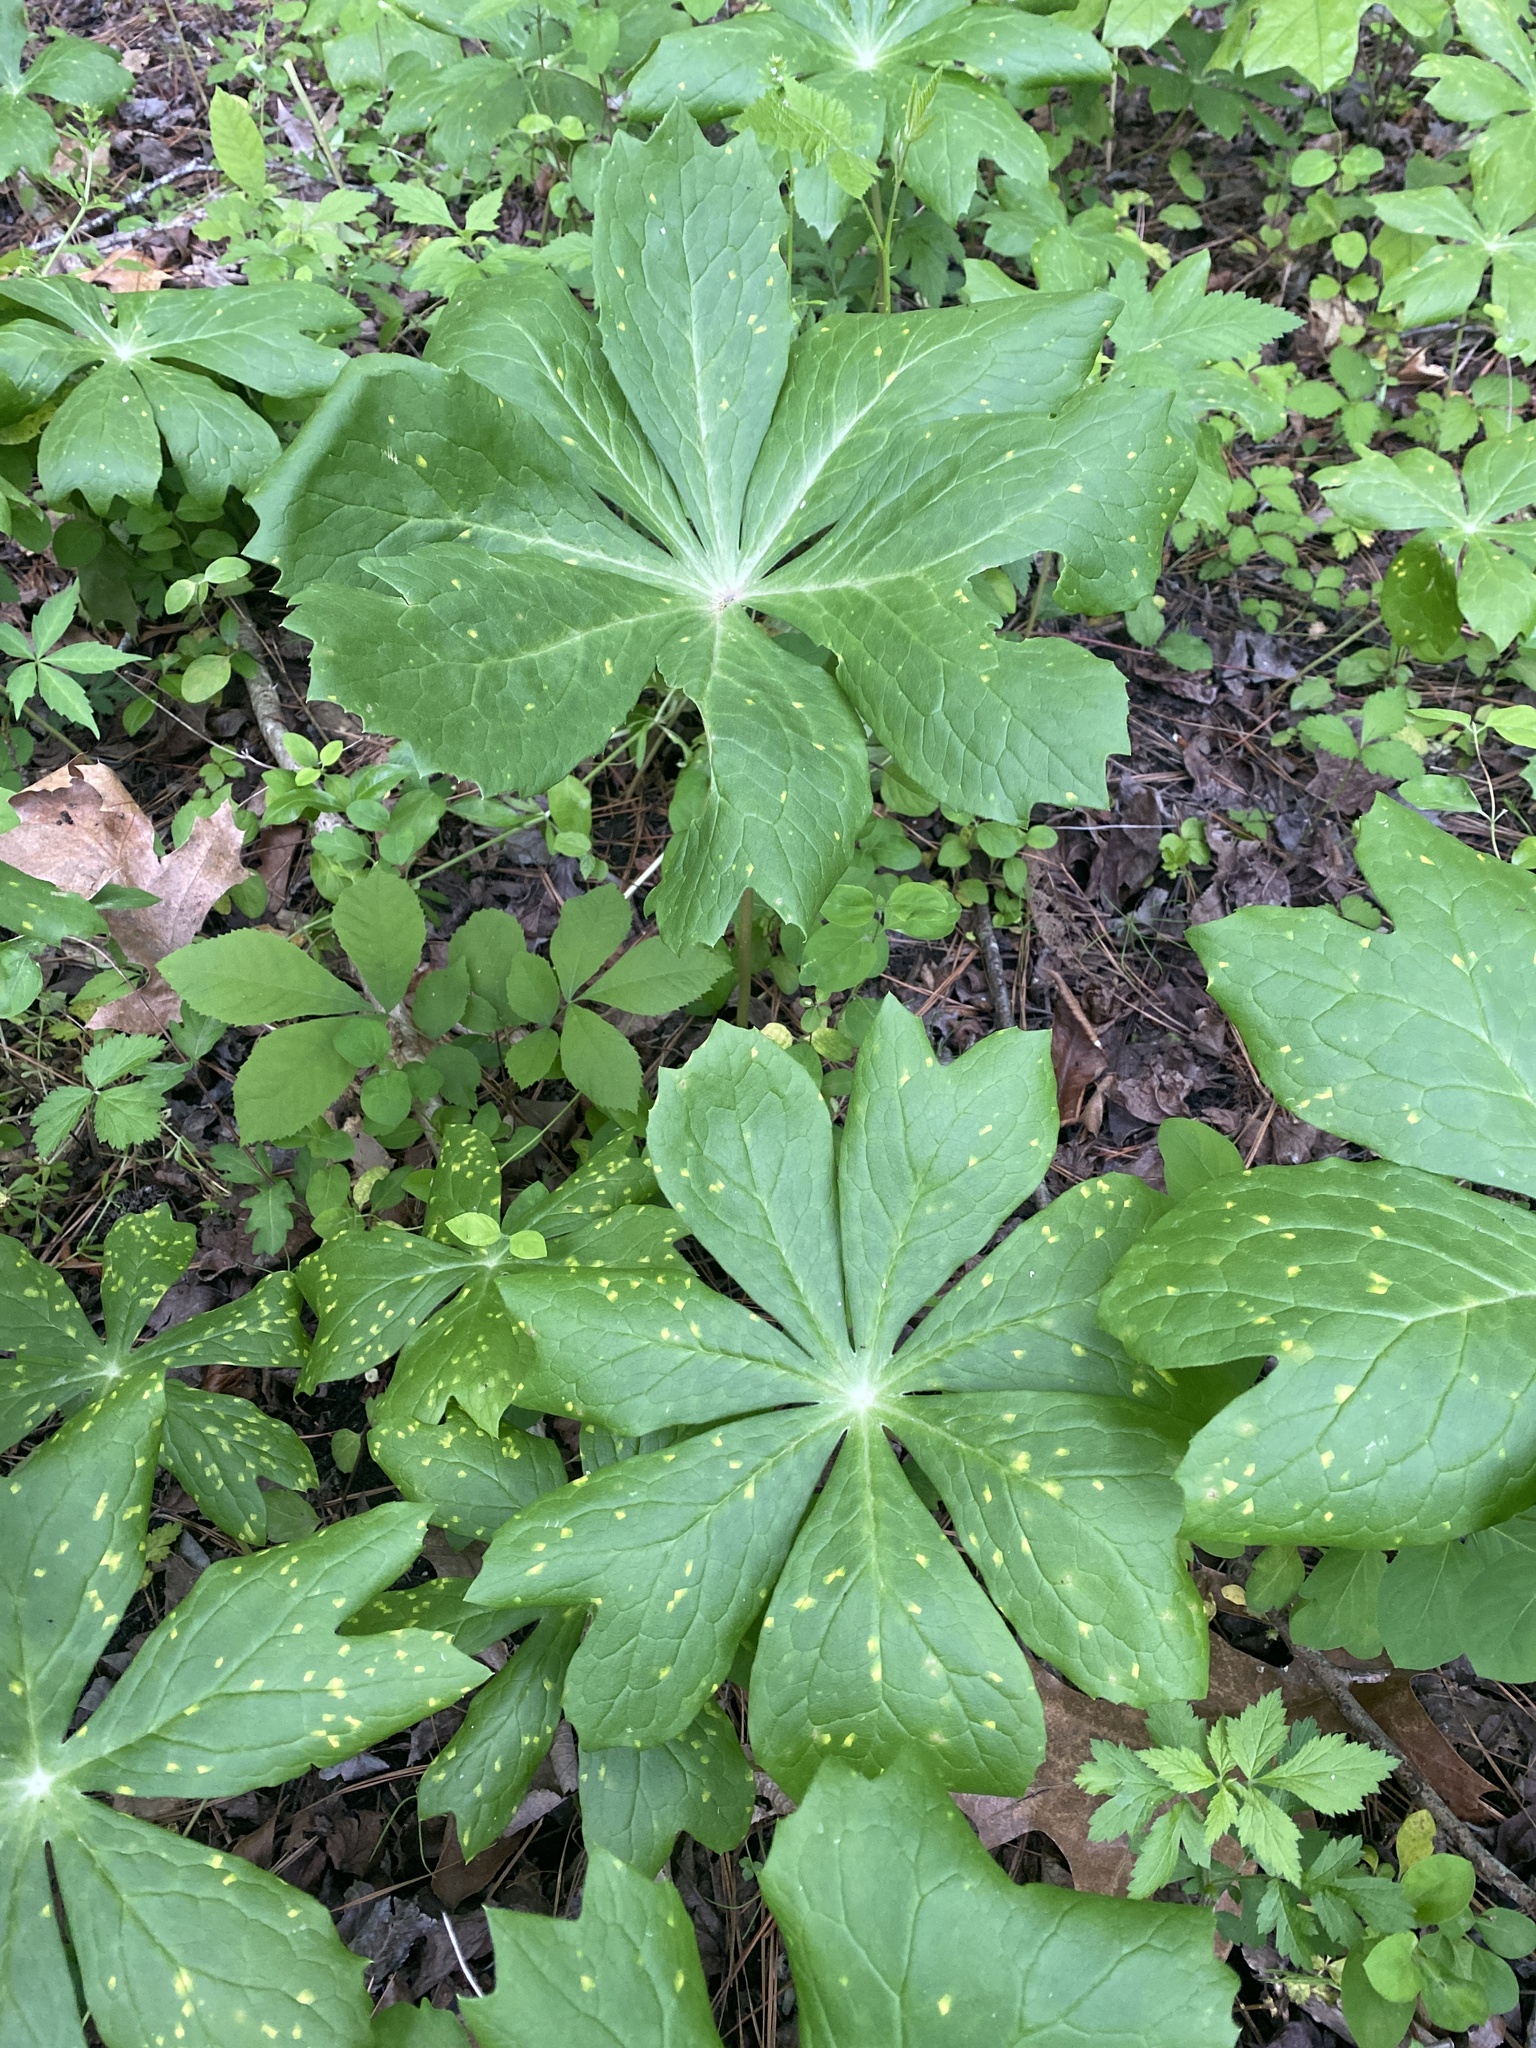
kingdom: Plantae
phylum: Tracheophyta
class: Magnoliopsida
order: Ranunculales
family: Berberidaceae
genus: Podophyllum
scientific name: Podophyllum peltatum
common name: Wild mandrake
